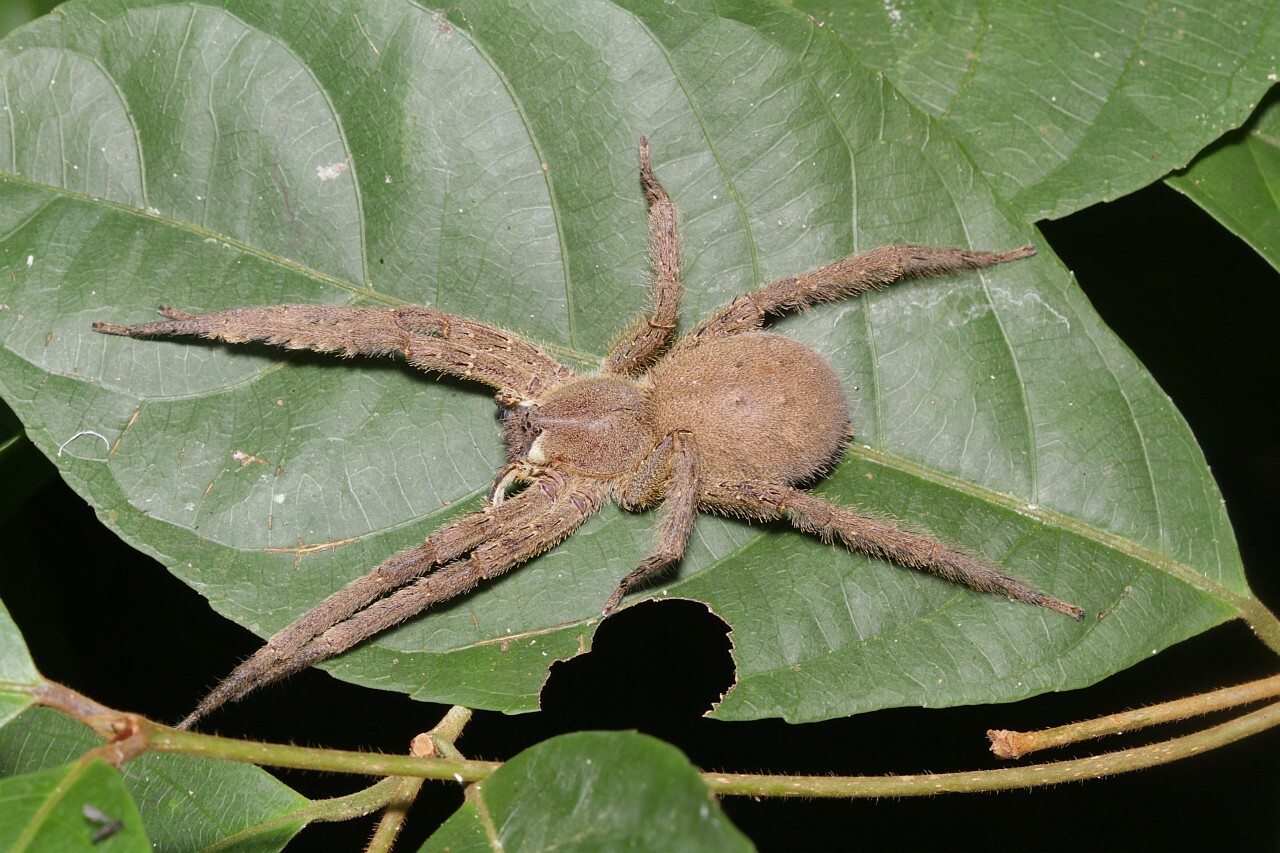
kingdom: Animalia
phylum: Arthropoda
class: Arachnida
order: Araneae
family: Ctenidae
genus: Phoneutria
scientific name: Phoneutria boliviensis
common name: Wandering spiders
